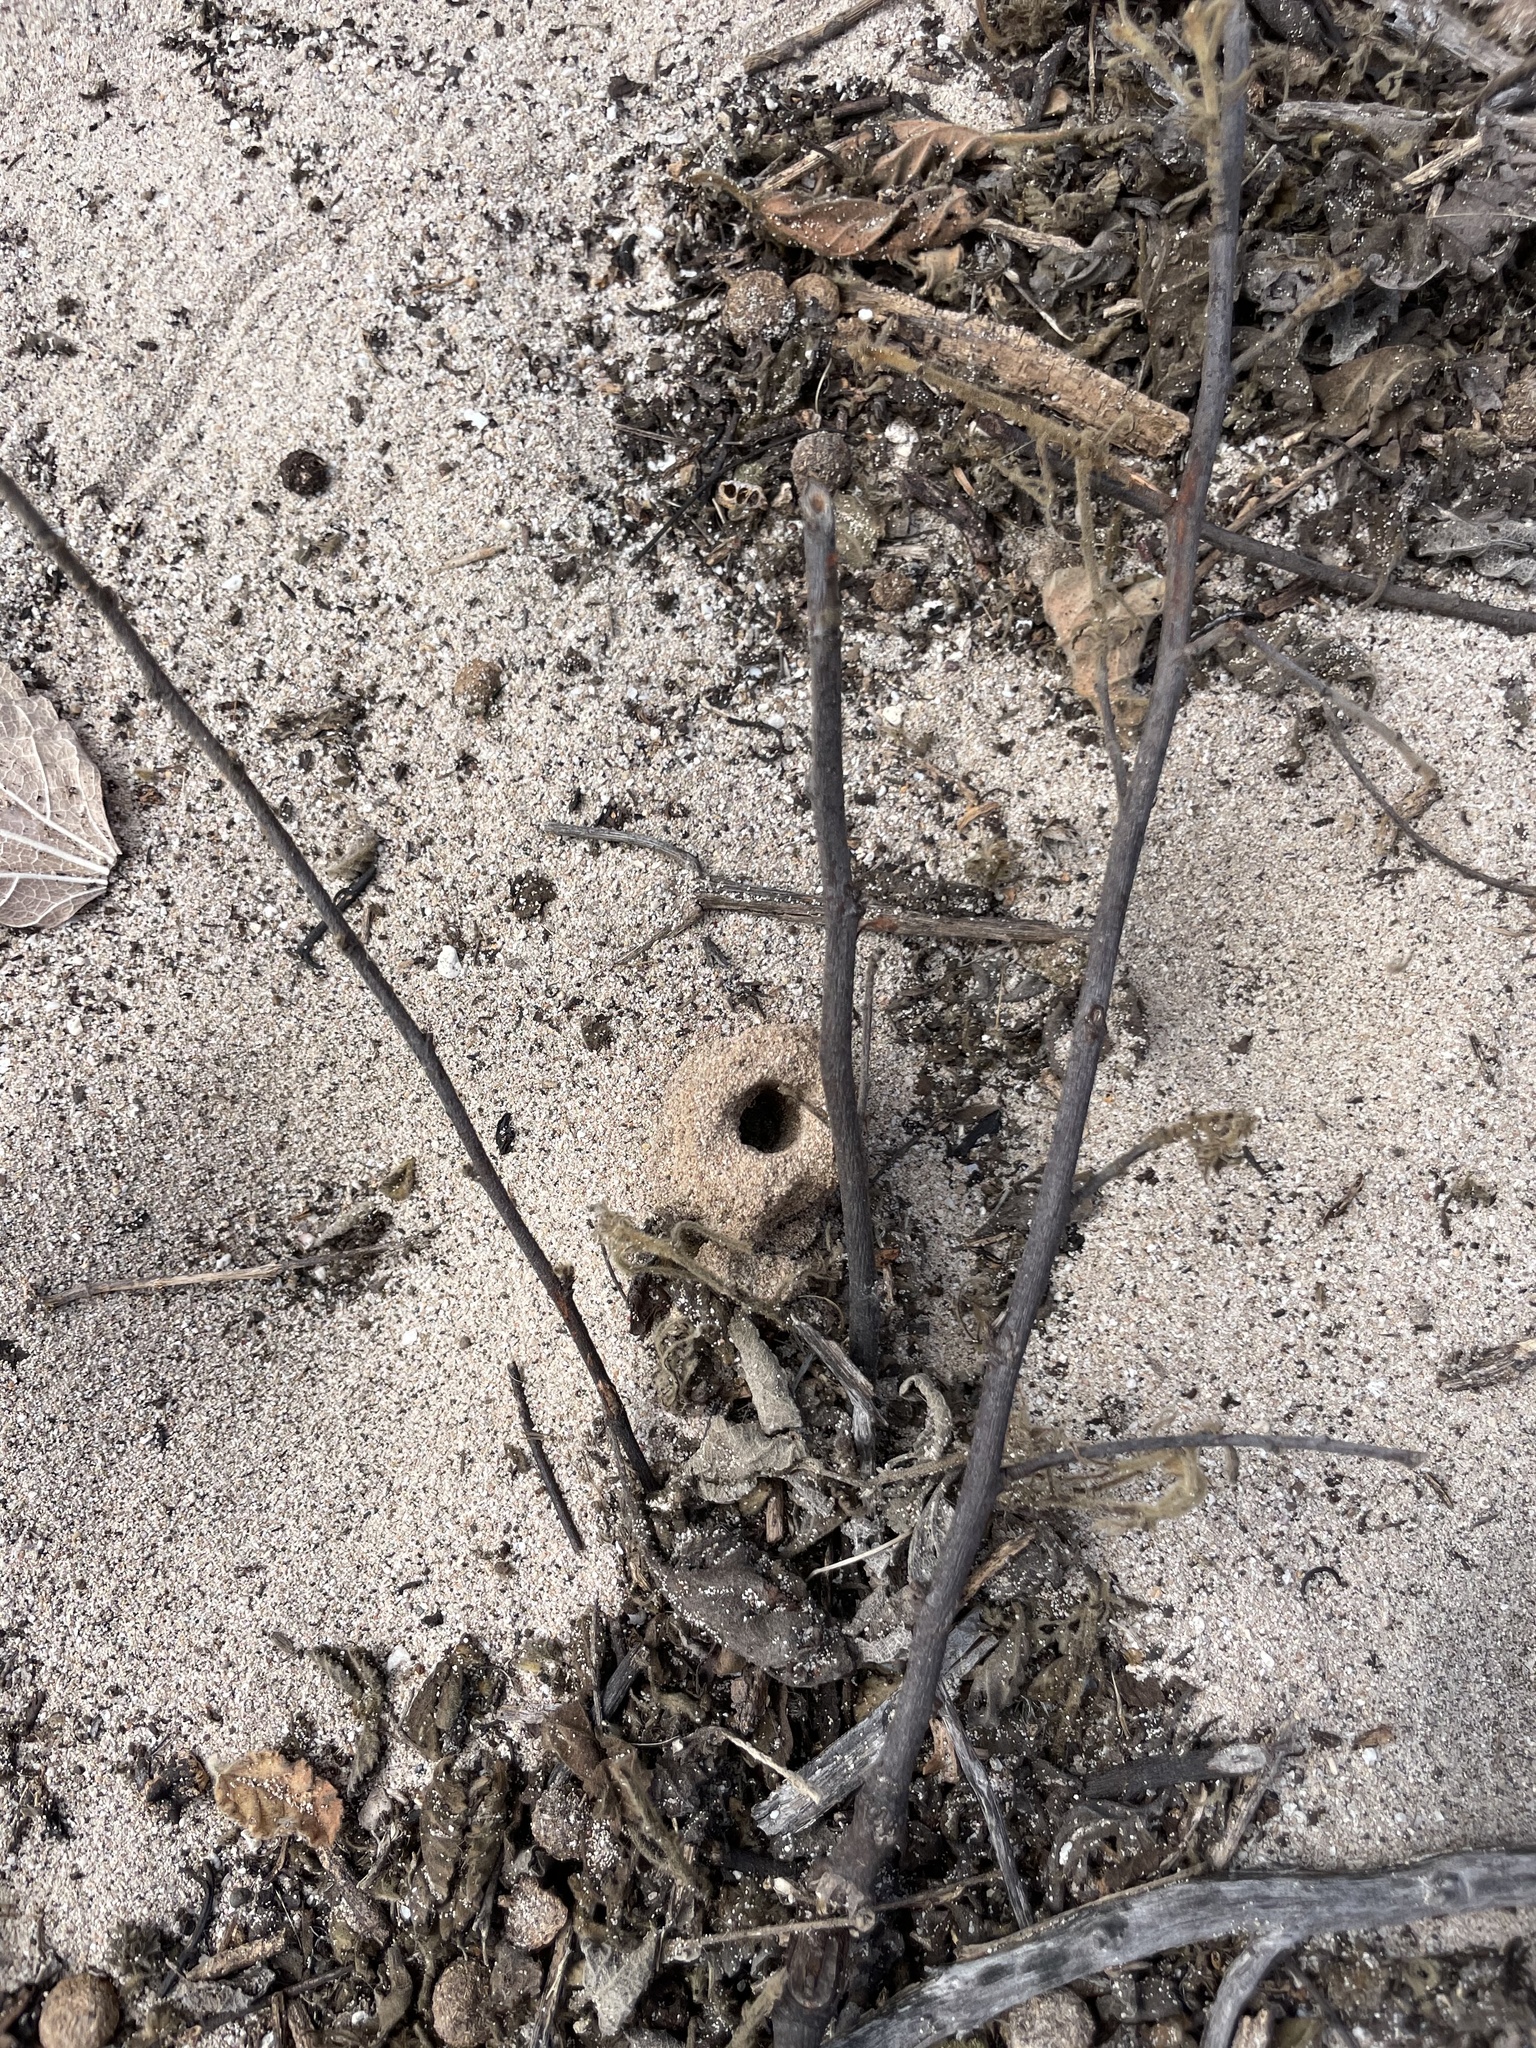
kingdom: Plantae
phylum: Tracheophyta
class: Magnoliopsida
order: Fabales
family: Fabaceae
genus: Guilandina
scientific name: Guilandina bonduc
